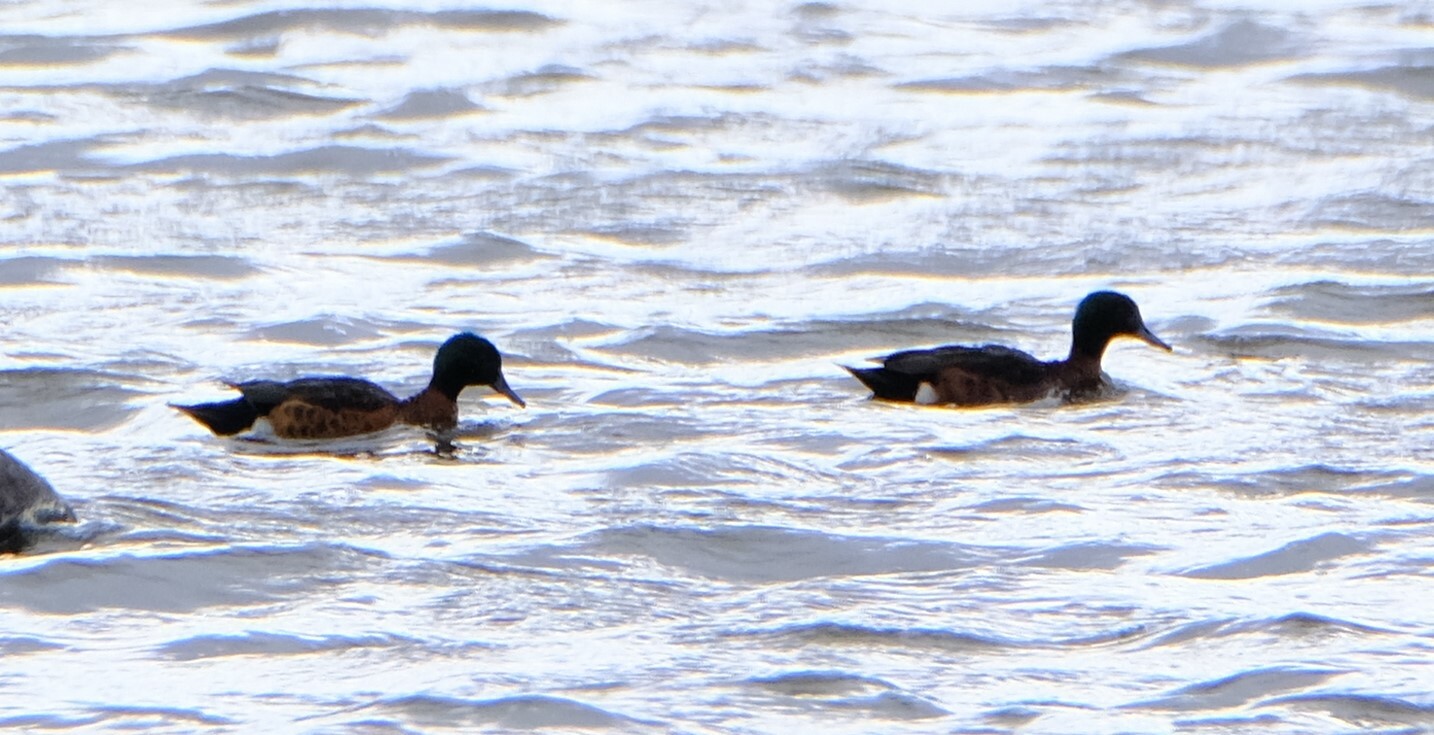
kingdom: Animalia
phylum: Chordata
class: Aves
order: Anseriformes
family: Anatidae
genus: Anas
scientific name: Anas castanea
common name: Chestnut teal
